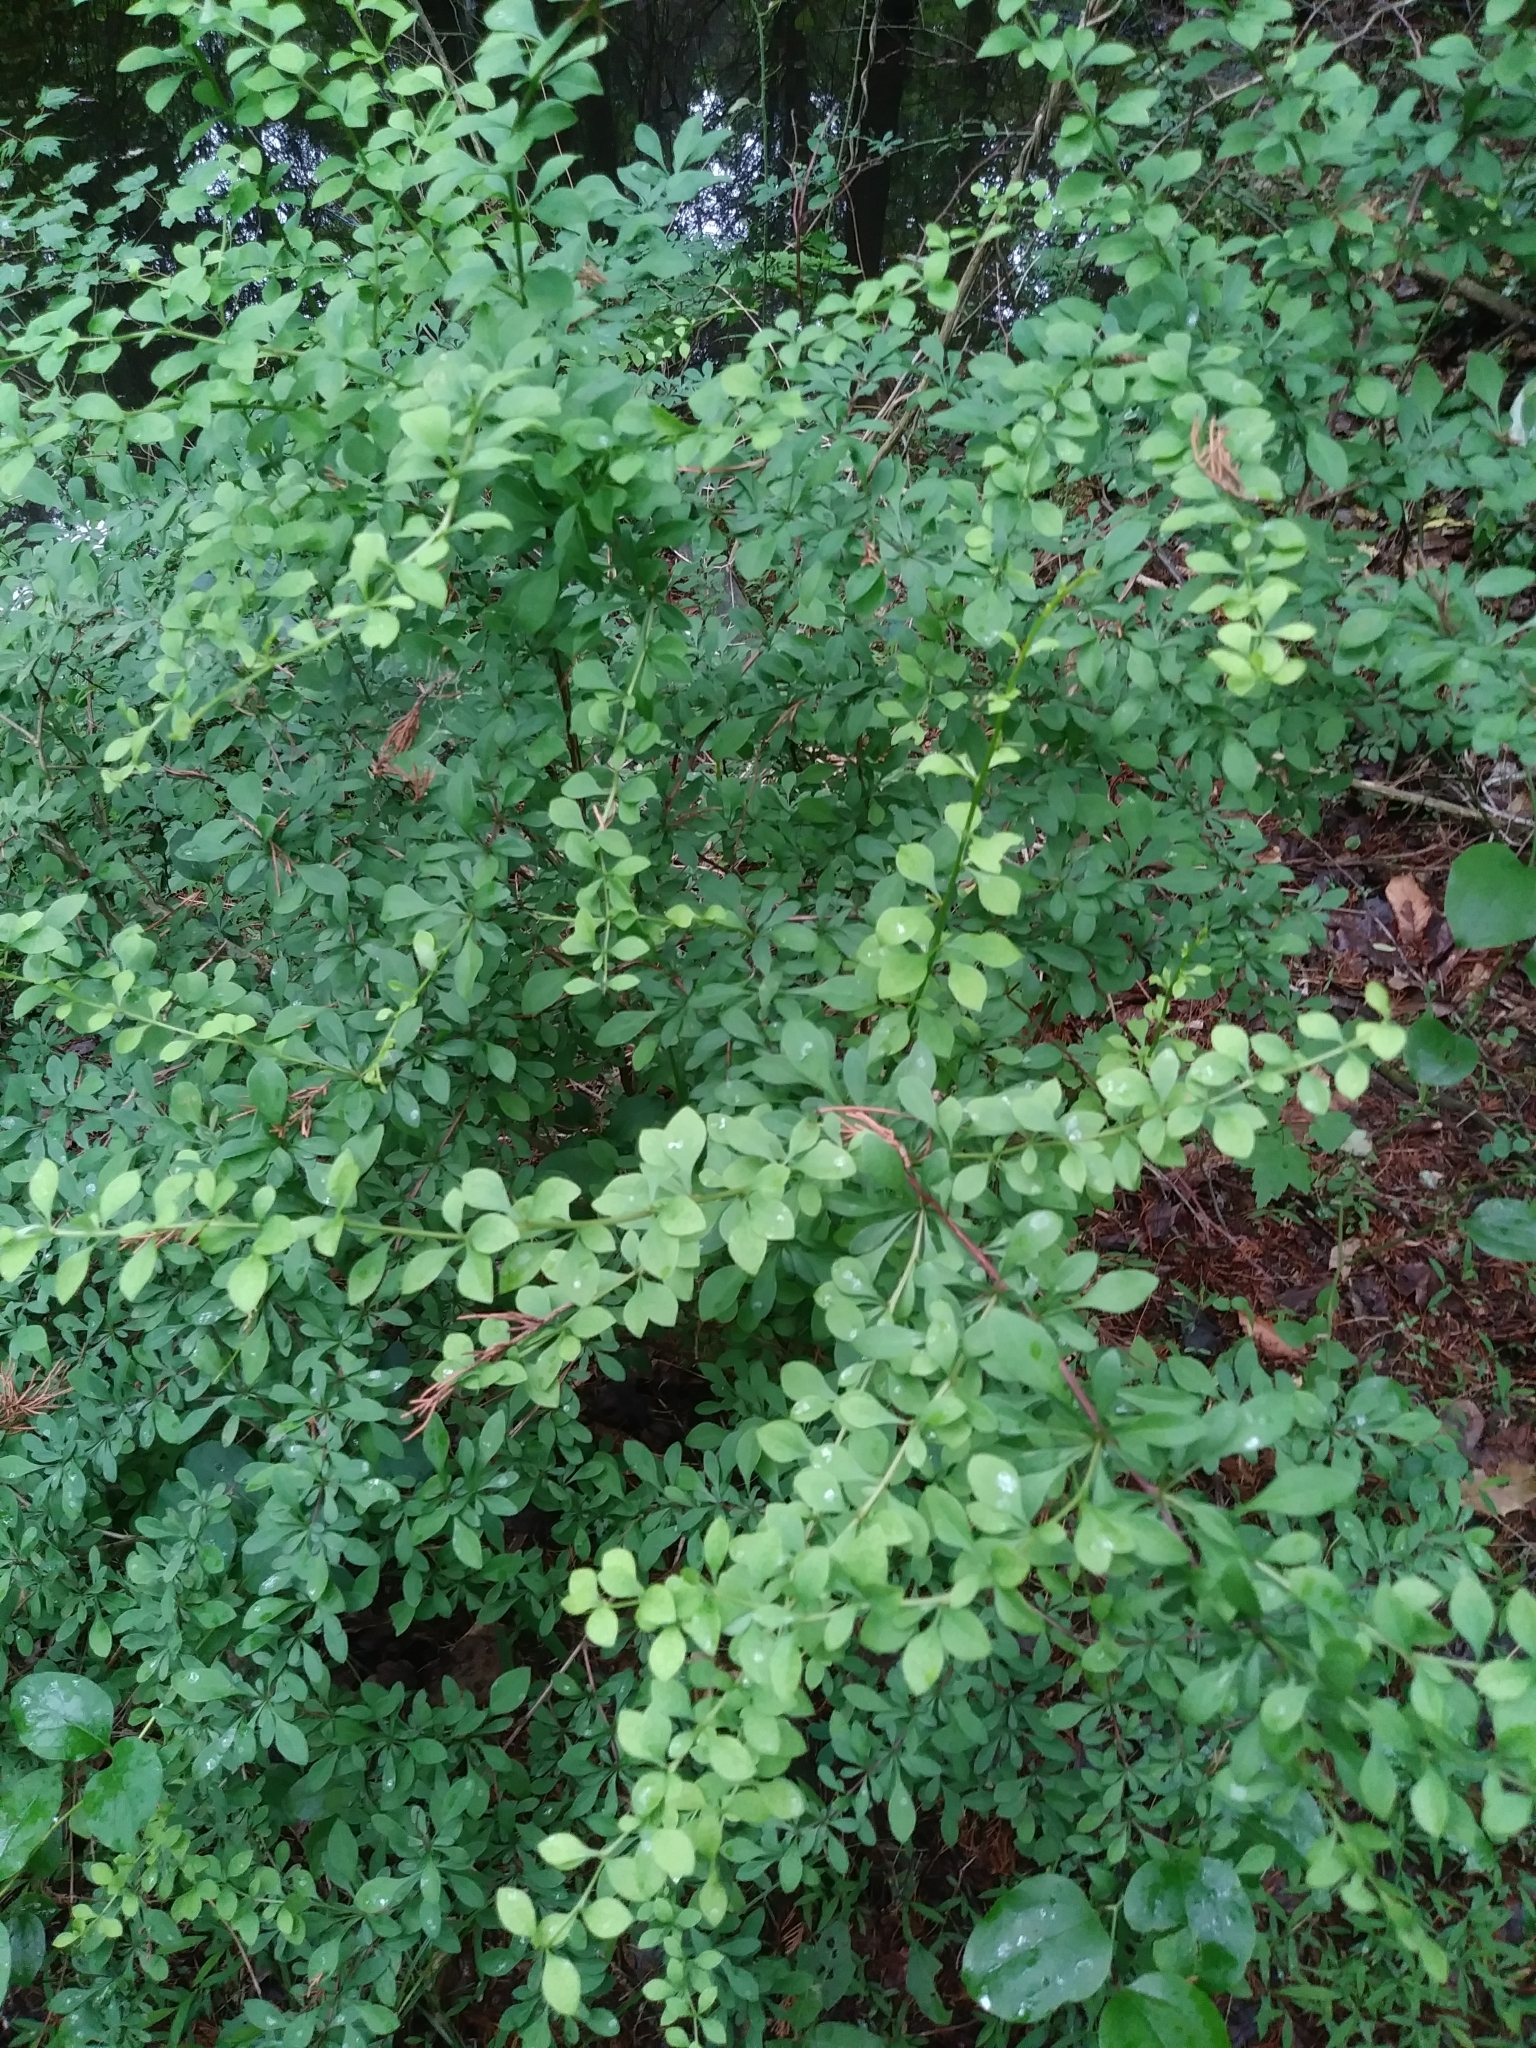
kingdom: Plantae
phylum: Tracheophyta
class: Magnoliopsida
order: Ranunculales
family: Berberidaceae
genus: Berberis
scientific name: Berberis thunbergii
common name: Japanese barberry
